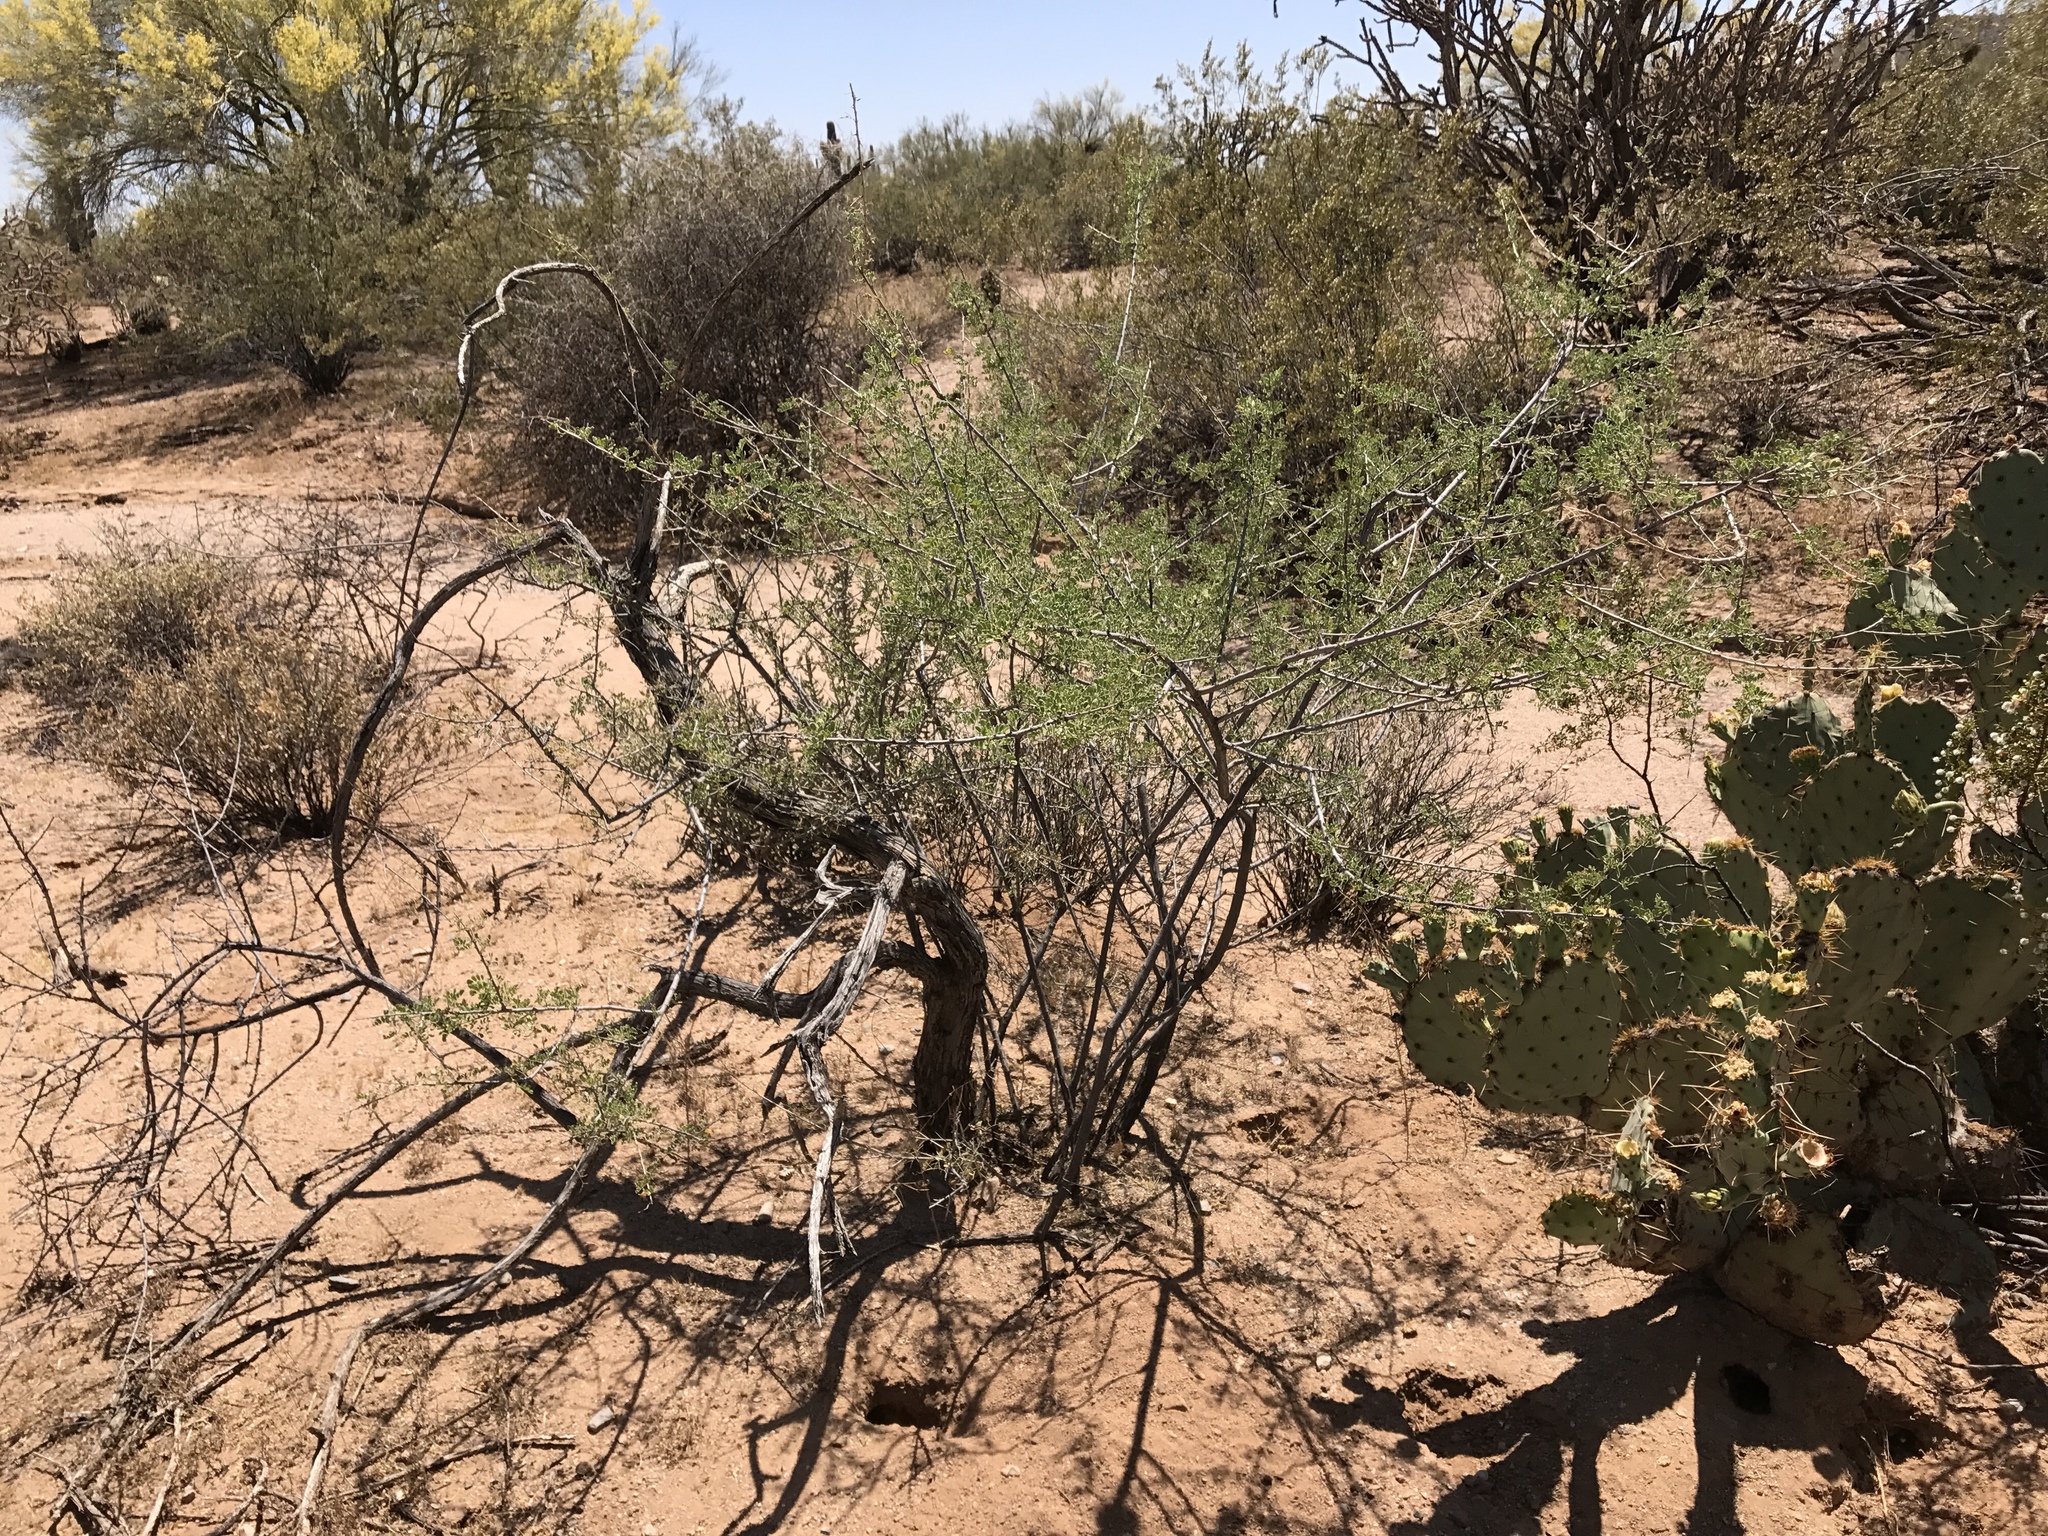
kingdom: Plantae
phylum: Tracheophyta
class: Magnoliopsida
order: Fabales
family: Fabaceae
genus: Senegalia
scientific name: Senegalia greggii
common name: Texas-mimosa
